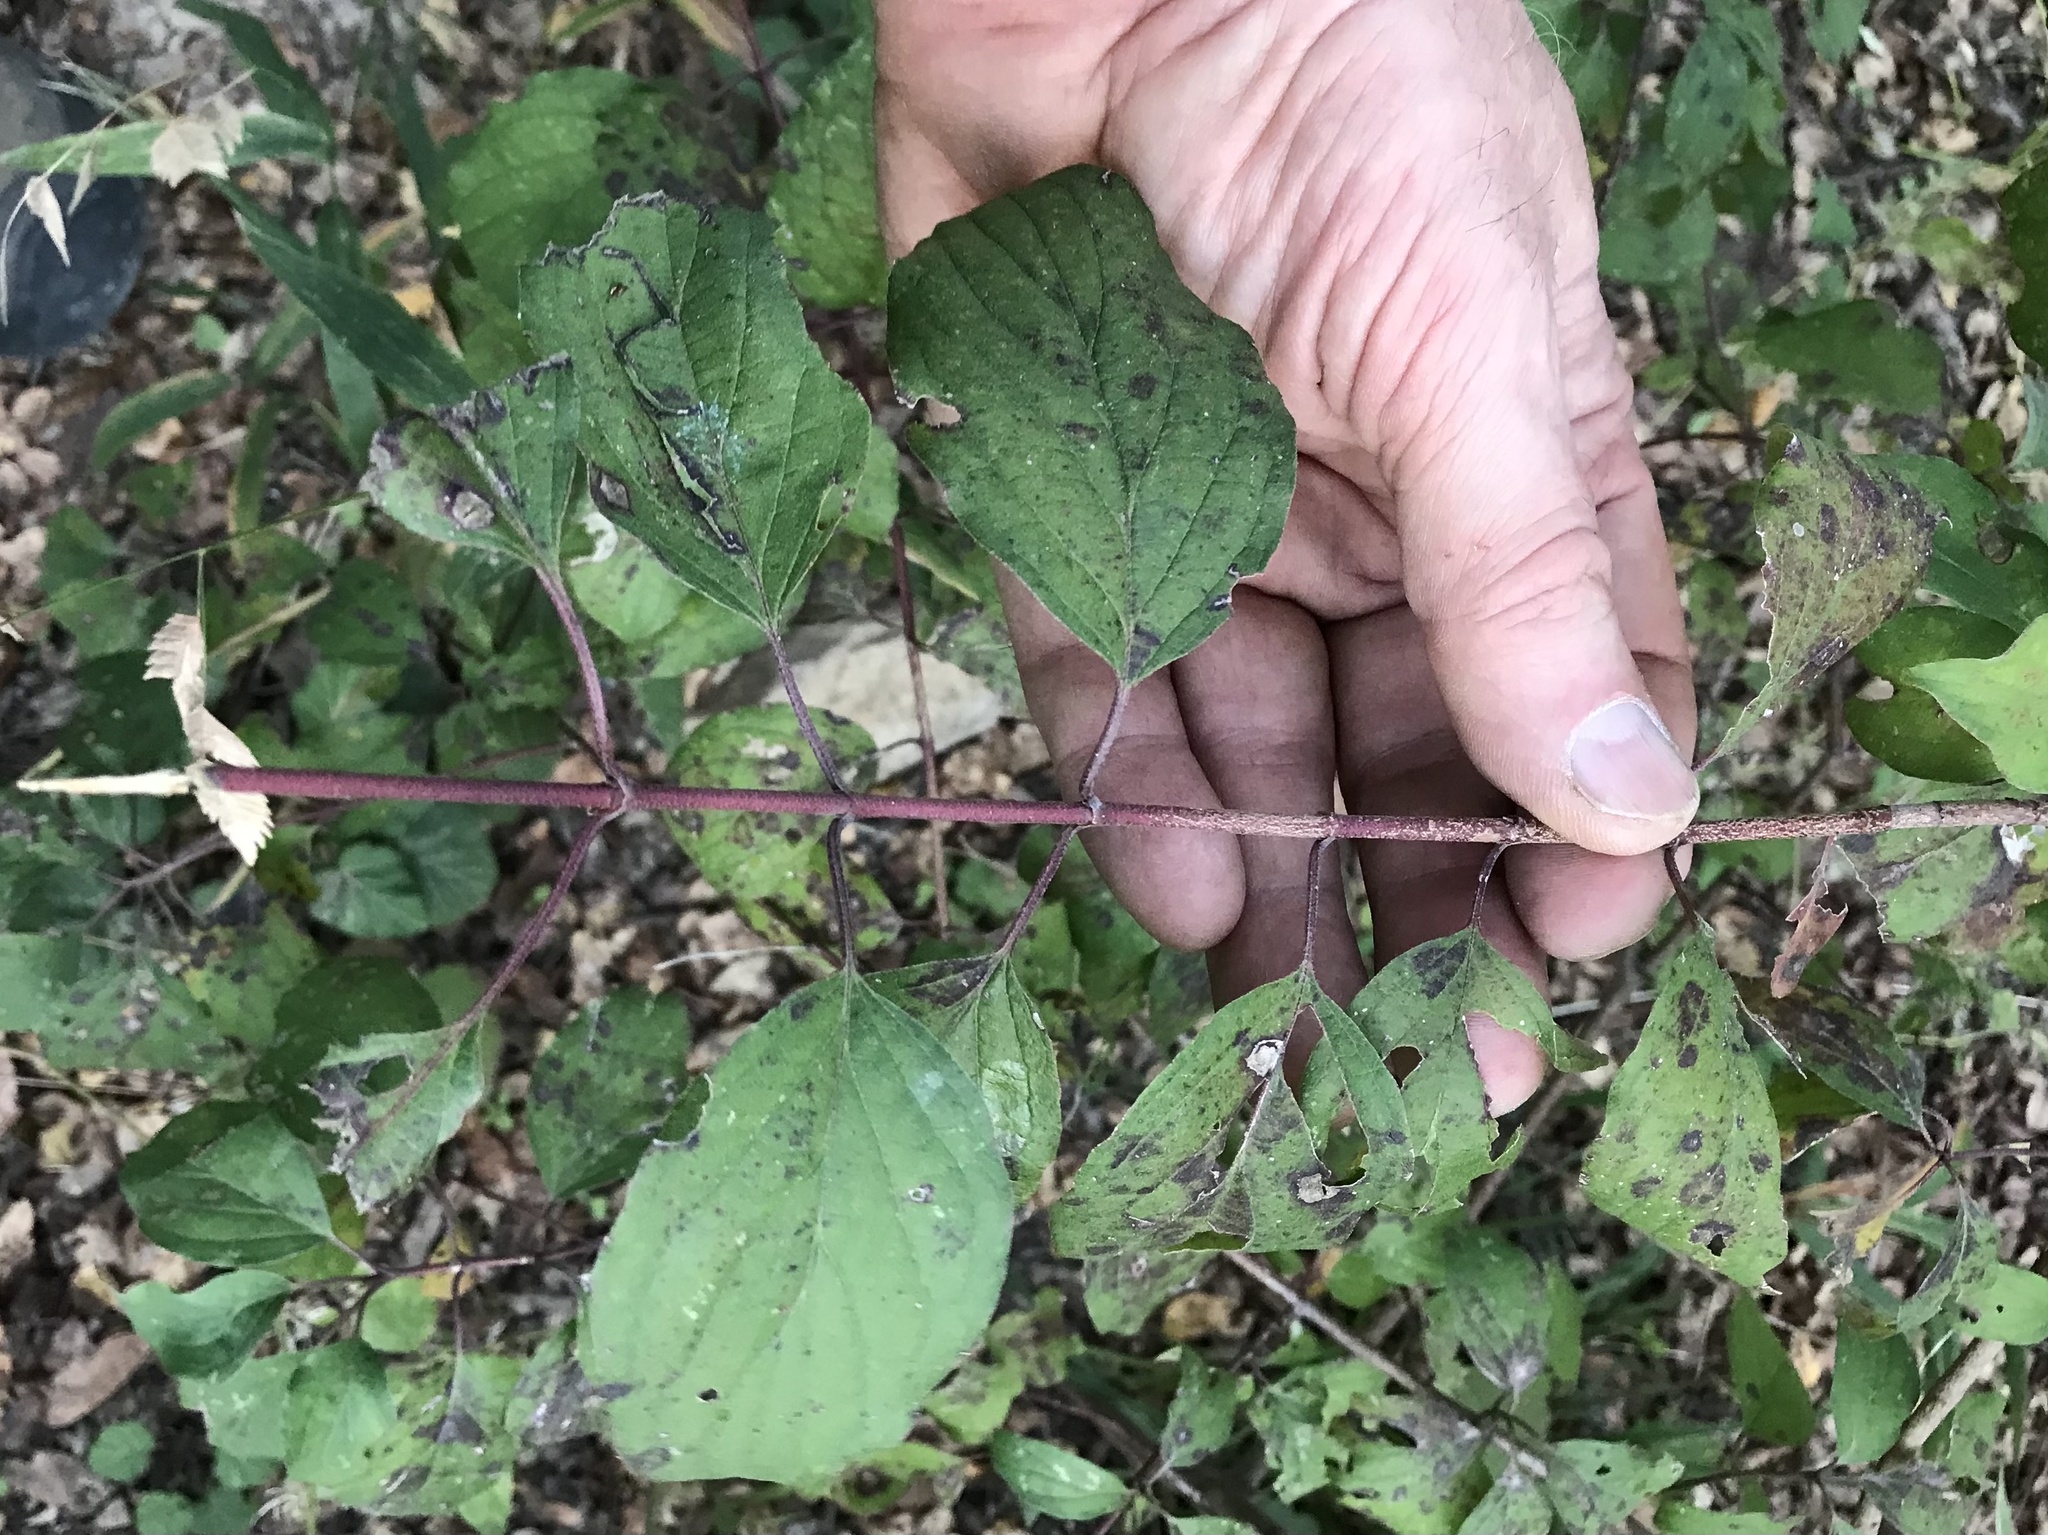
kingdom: Plantae
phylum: Tracheophyta
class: Magnoliopsida
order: Cornales
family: Cornaceae
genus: Cornus
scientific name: Cornus drummondii
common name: Rough-leaf dogwood
